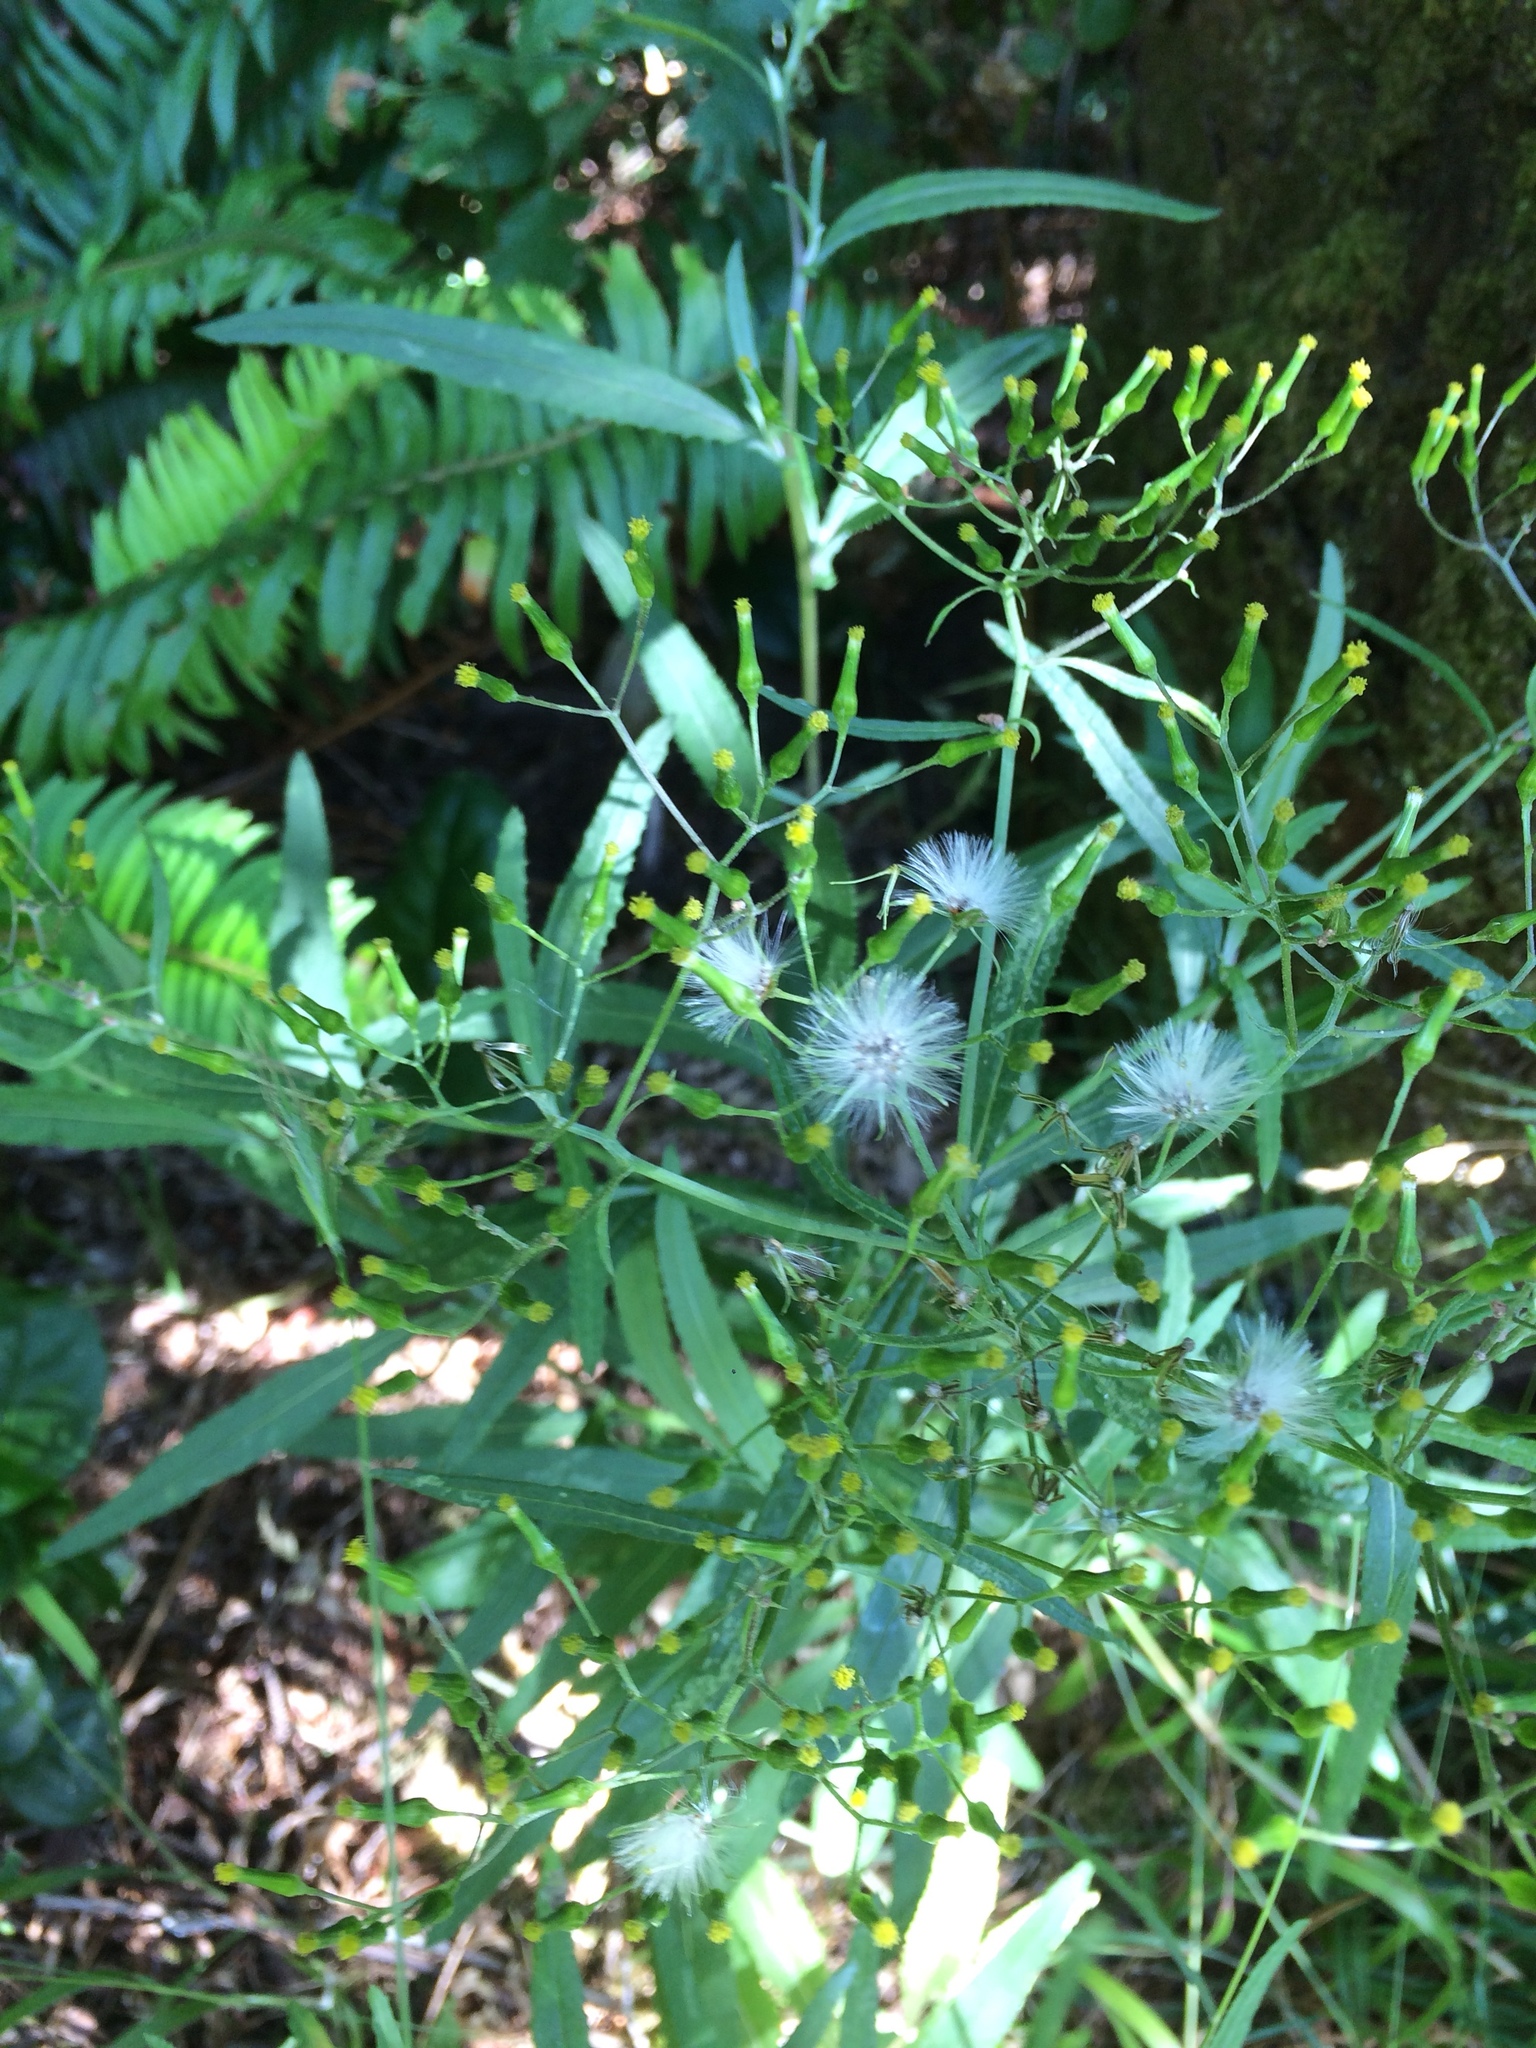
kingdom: Plantae
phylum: Tracheophyta
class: Magnoliopsida
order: Asterales
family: Asteraceae
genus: Senecio
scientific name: Senecio minimus
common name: Toothed fireweed
